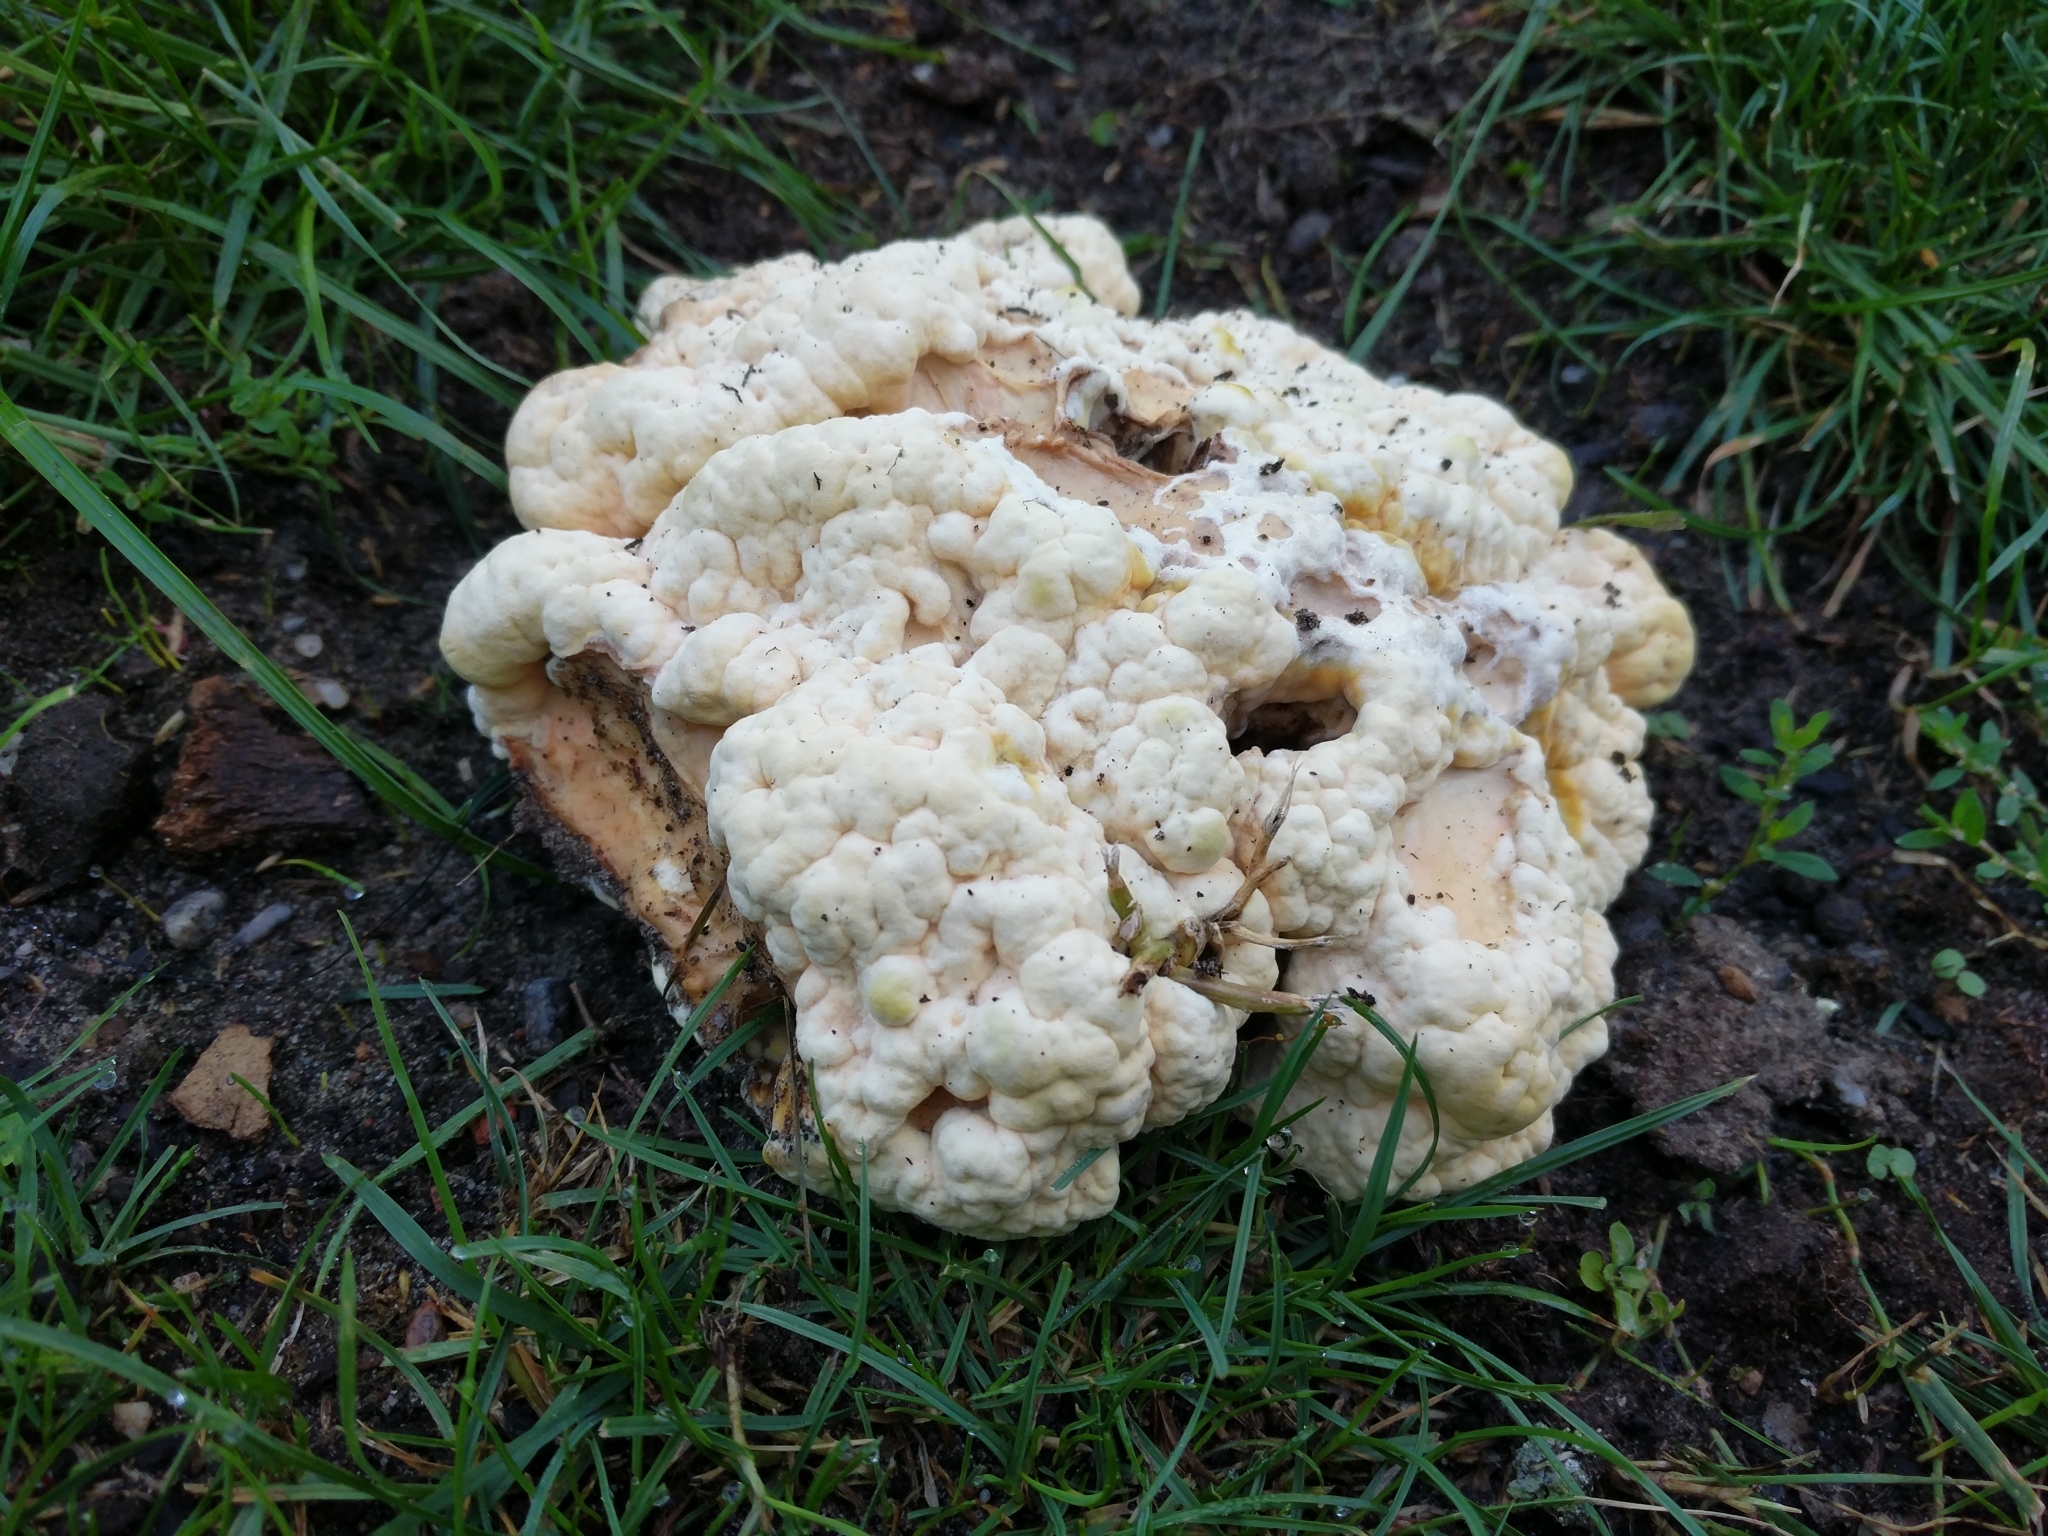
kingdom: Fungi
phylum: Basidiomycota
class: Agaricomycetes
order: Polyporales
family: Laetiporaceae
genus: Laetiporus
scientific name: Laetiporus sulphureus
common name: Chicken of the woods
